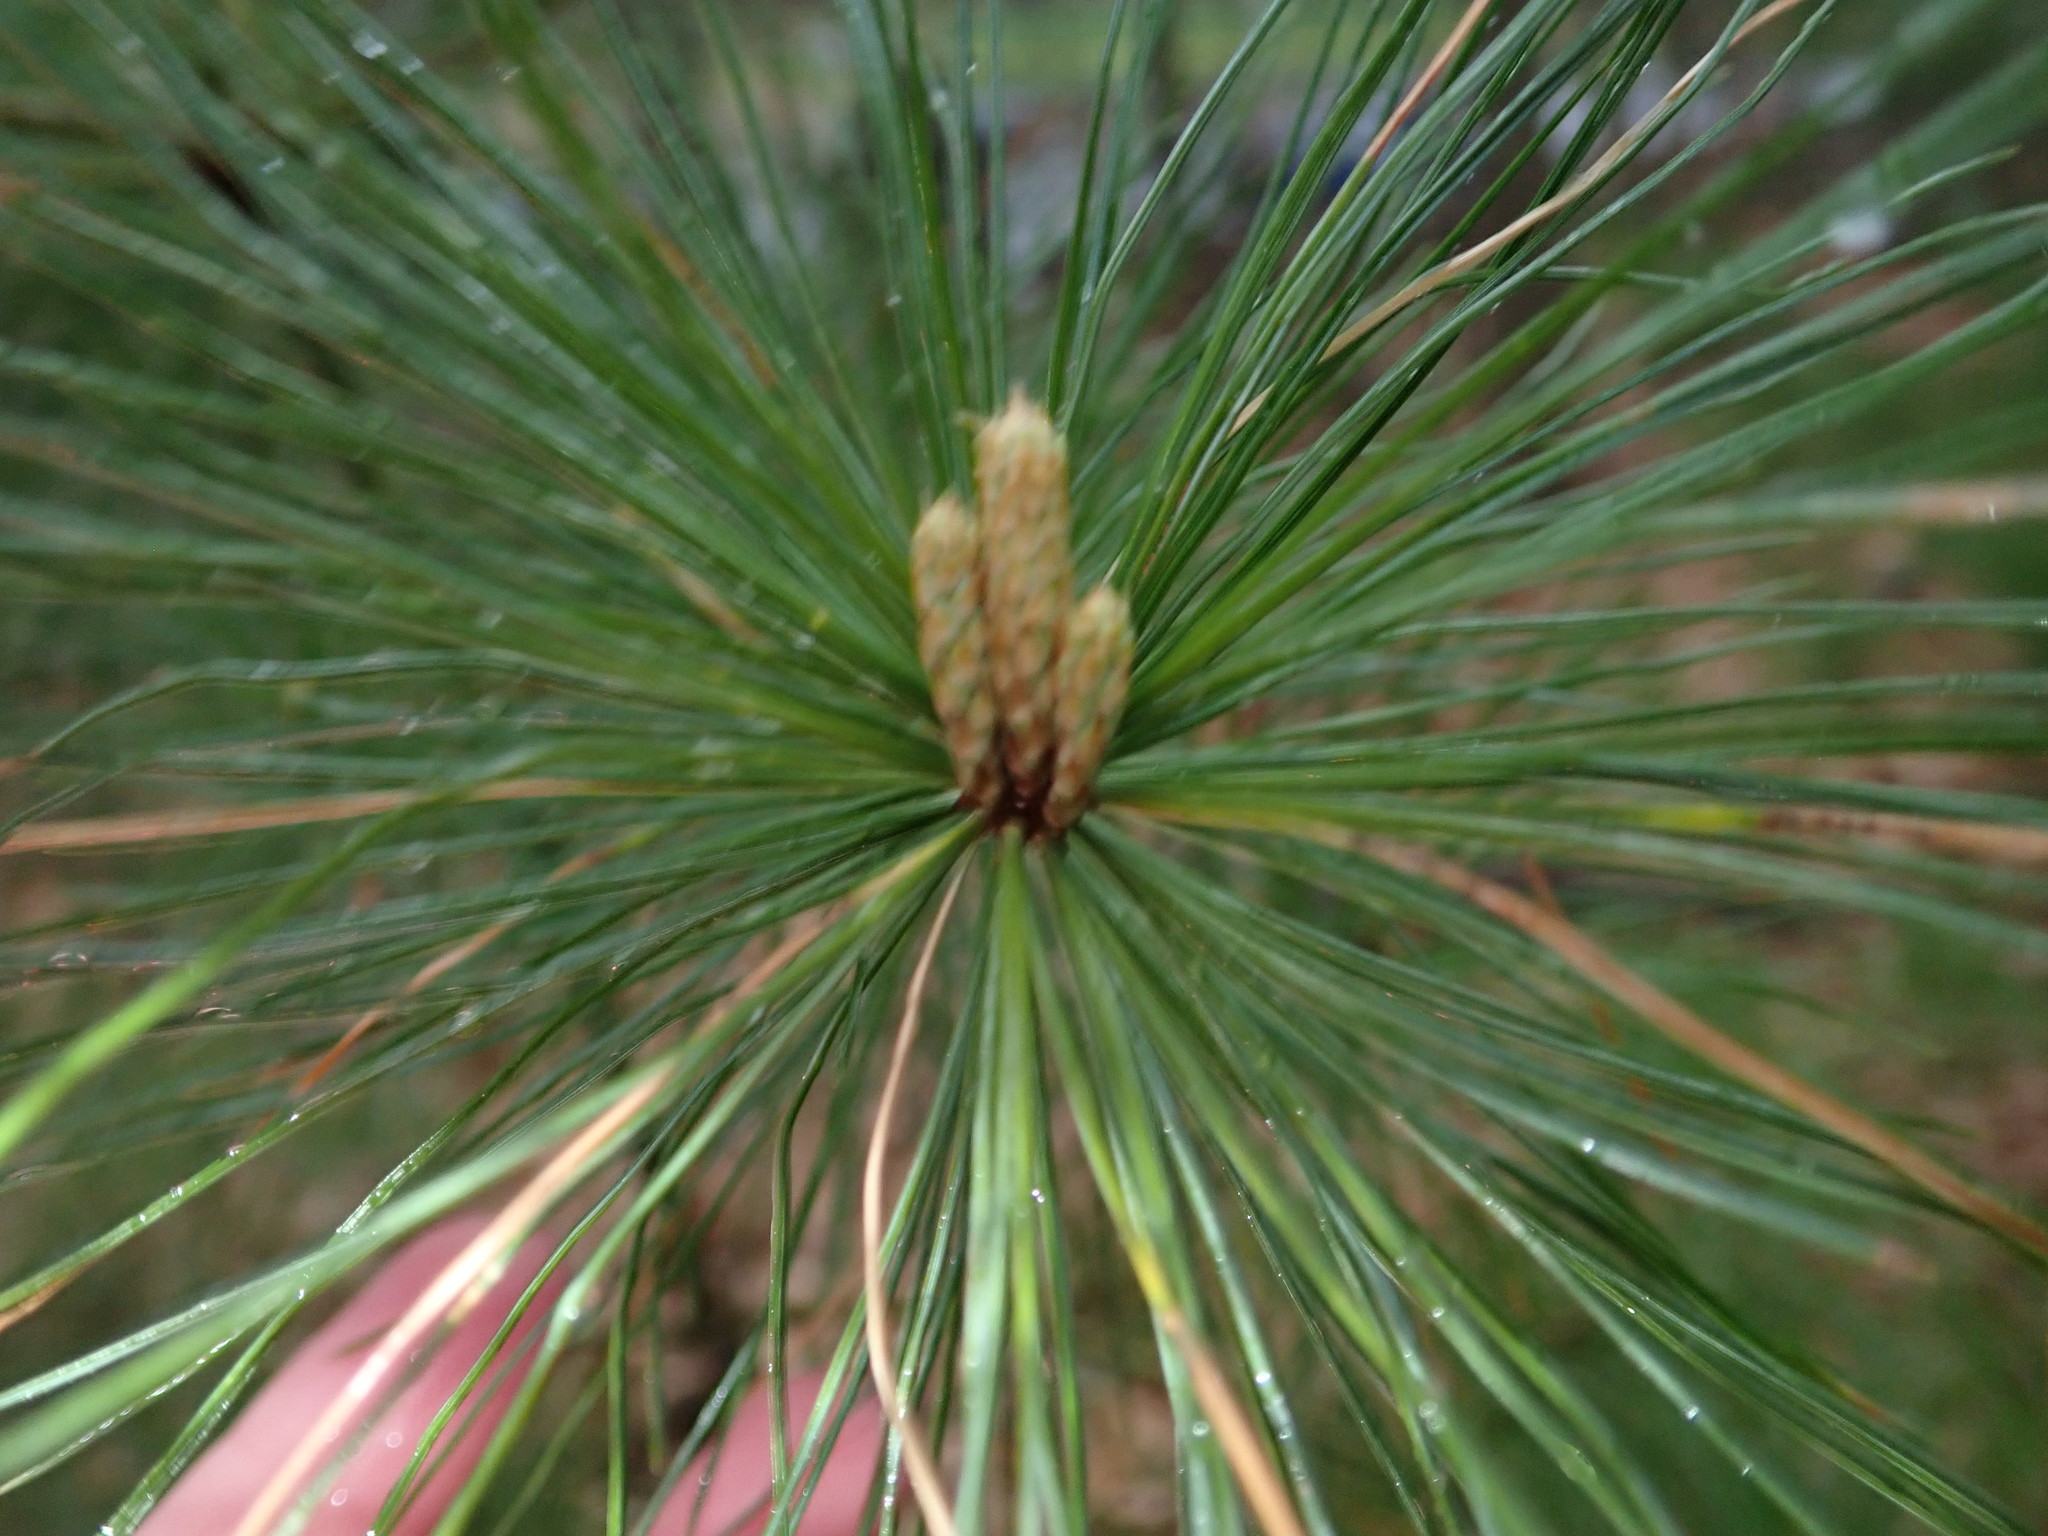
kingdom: Plantae
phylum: Tracheophyta
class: Pinopsida
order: Pinales
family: Pinaceae
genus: Pinus
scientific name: Pinus strobus
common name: Weymouth pine
